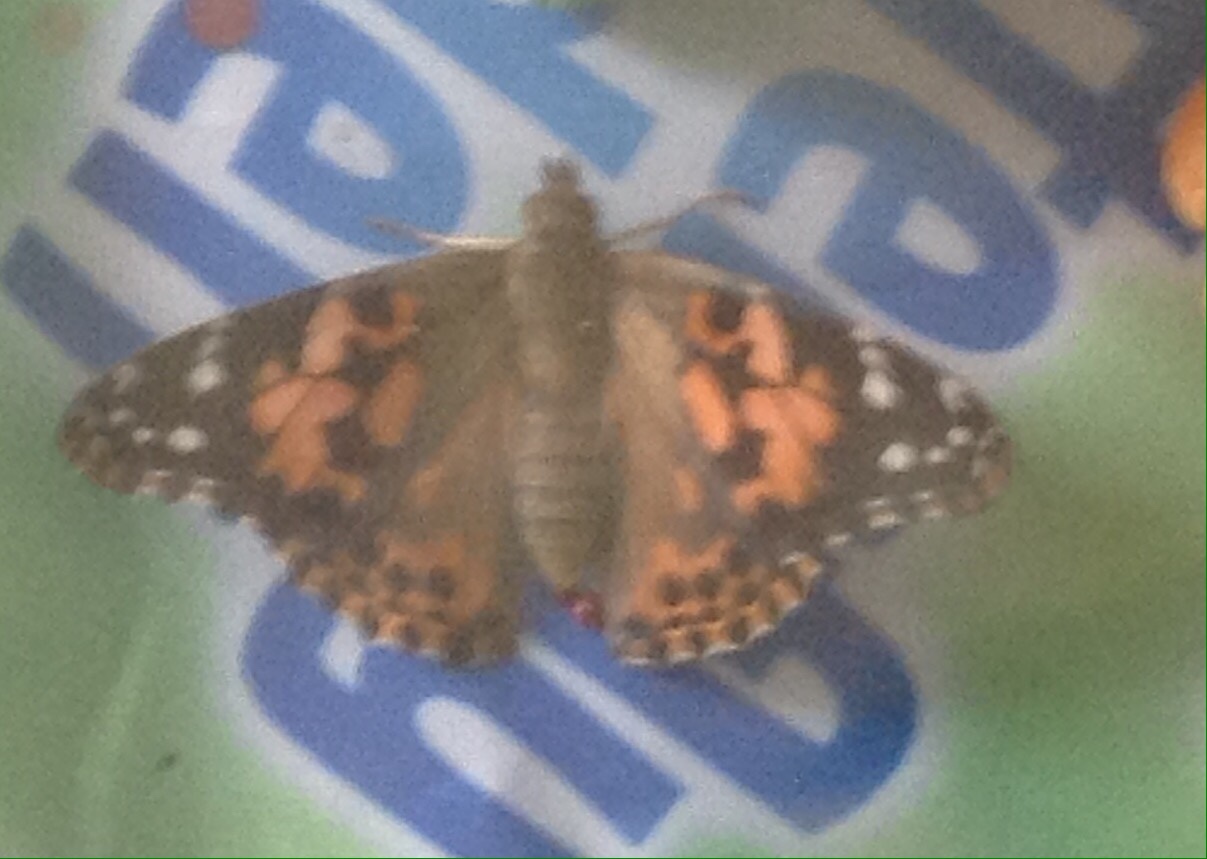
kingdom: Animalia
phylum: Arthropoda
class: Insecta
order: Lepidoptera
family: Nymphalidae
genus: Vanessa
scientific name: Vanessa cardui
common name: Painted lady
